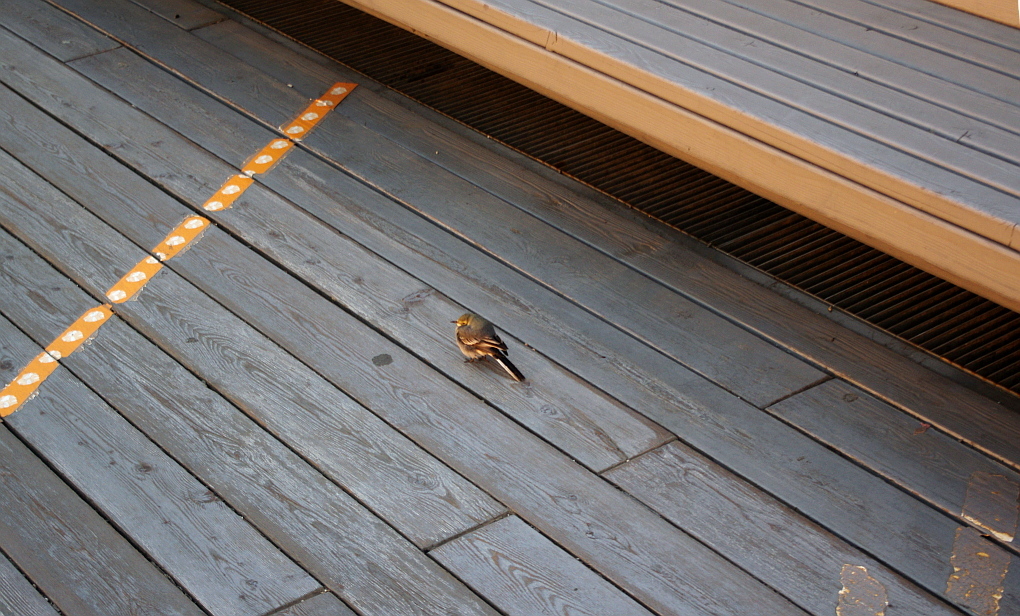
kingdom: Animalia
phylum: Chordata
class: Aves
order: Passeriformes
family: Motacillidae
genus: Motacilla
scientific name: Motacilla alba
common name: White wagtail
